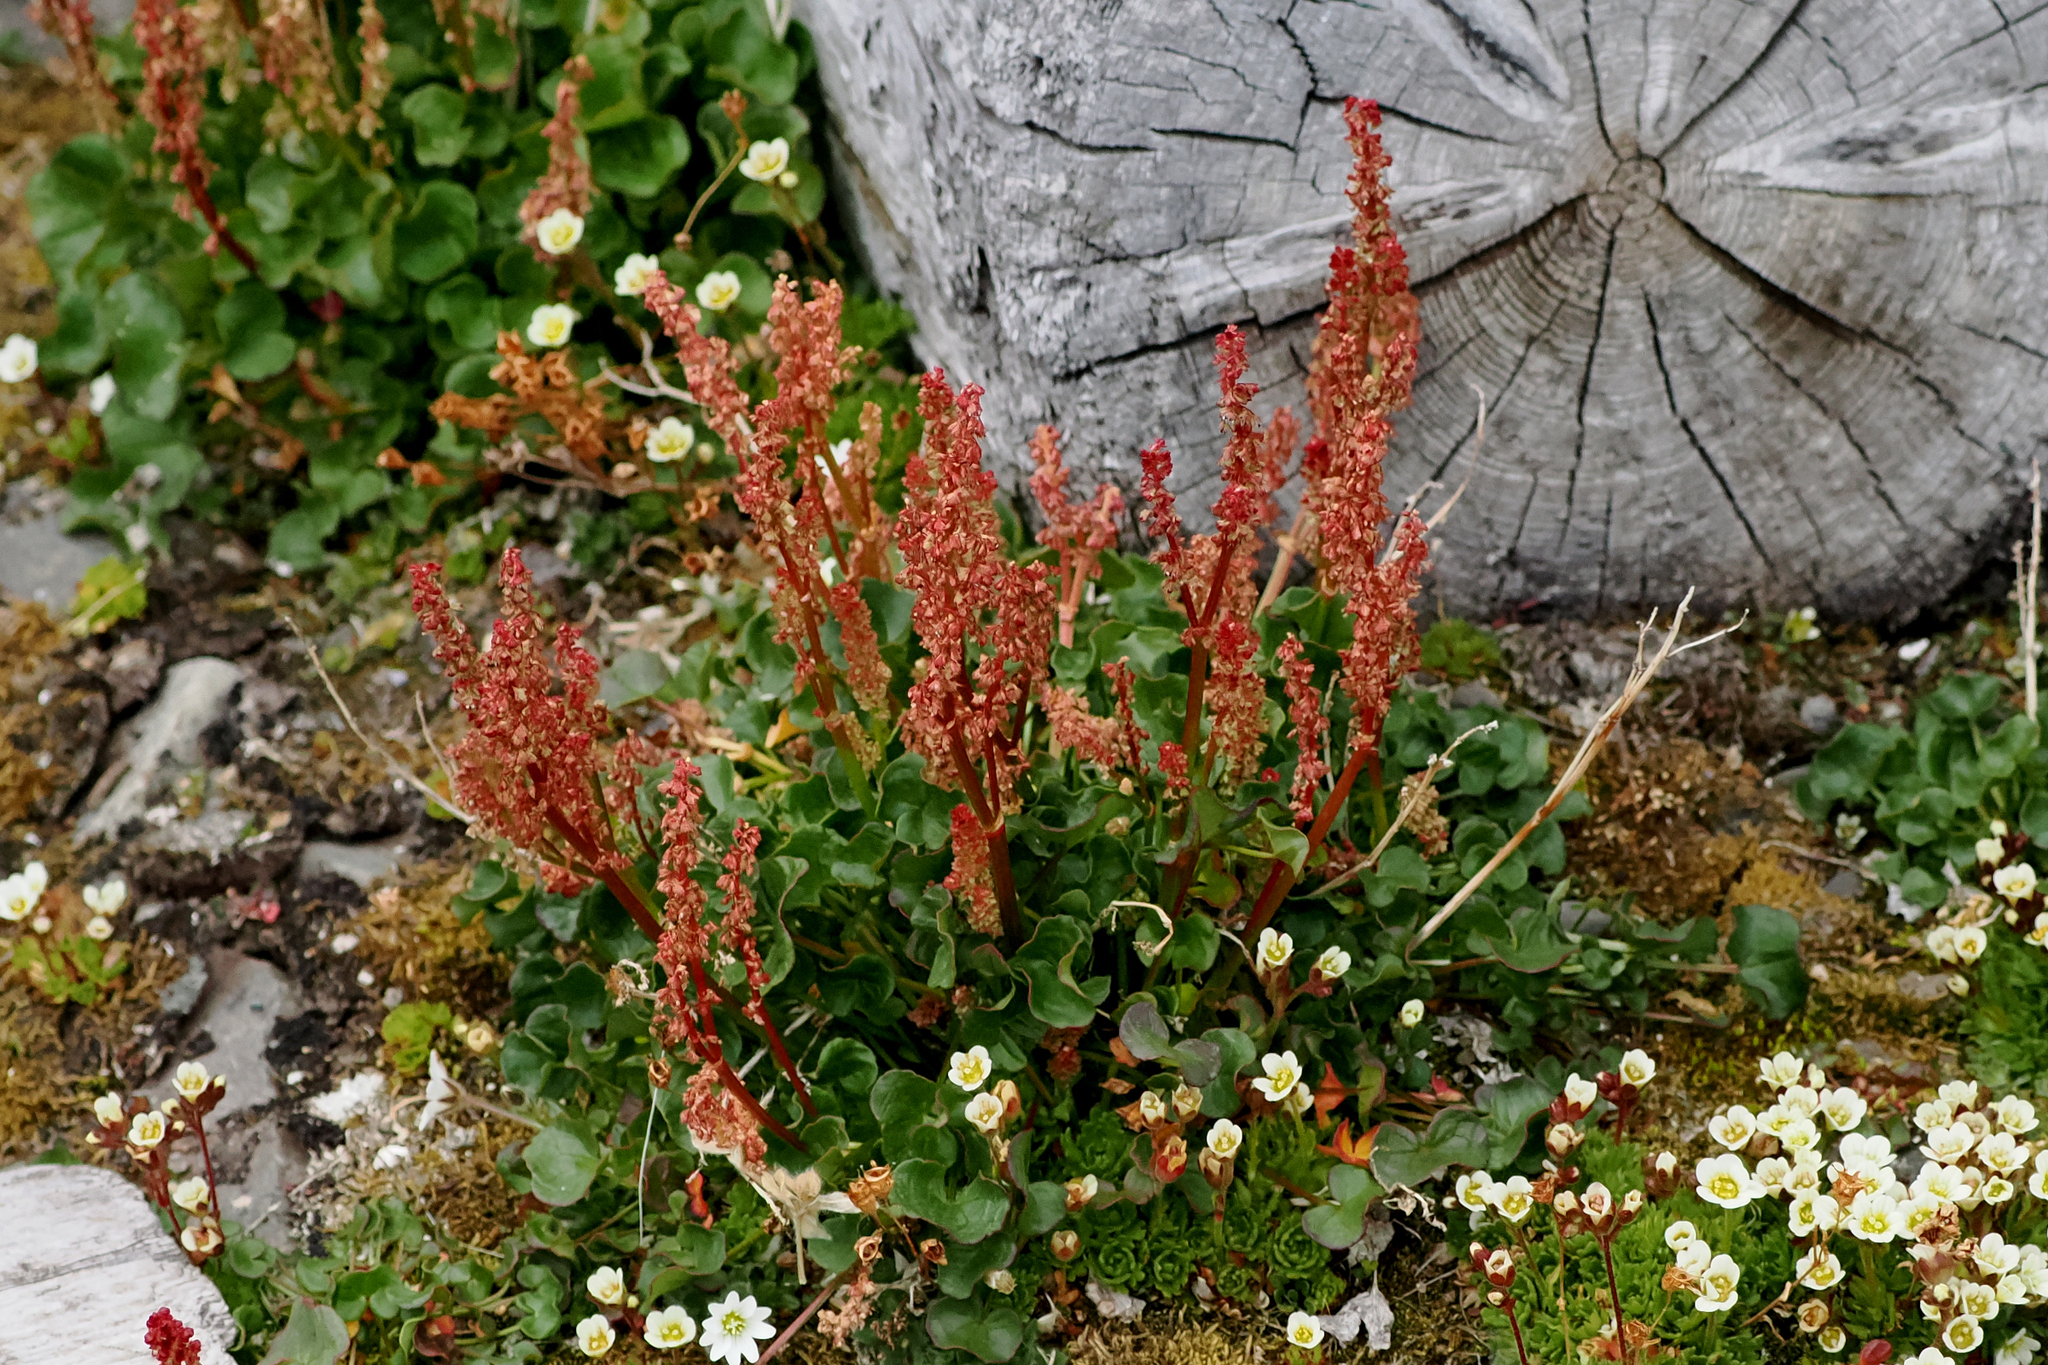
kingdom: Plantae
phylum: Tracheophyta
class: Magnoliopsida
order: Caryophyllales
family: Polygonaceae
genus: Oxyria
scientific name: Oxyria digyna
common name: Alpine mountain-sorrel
